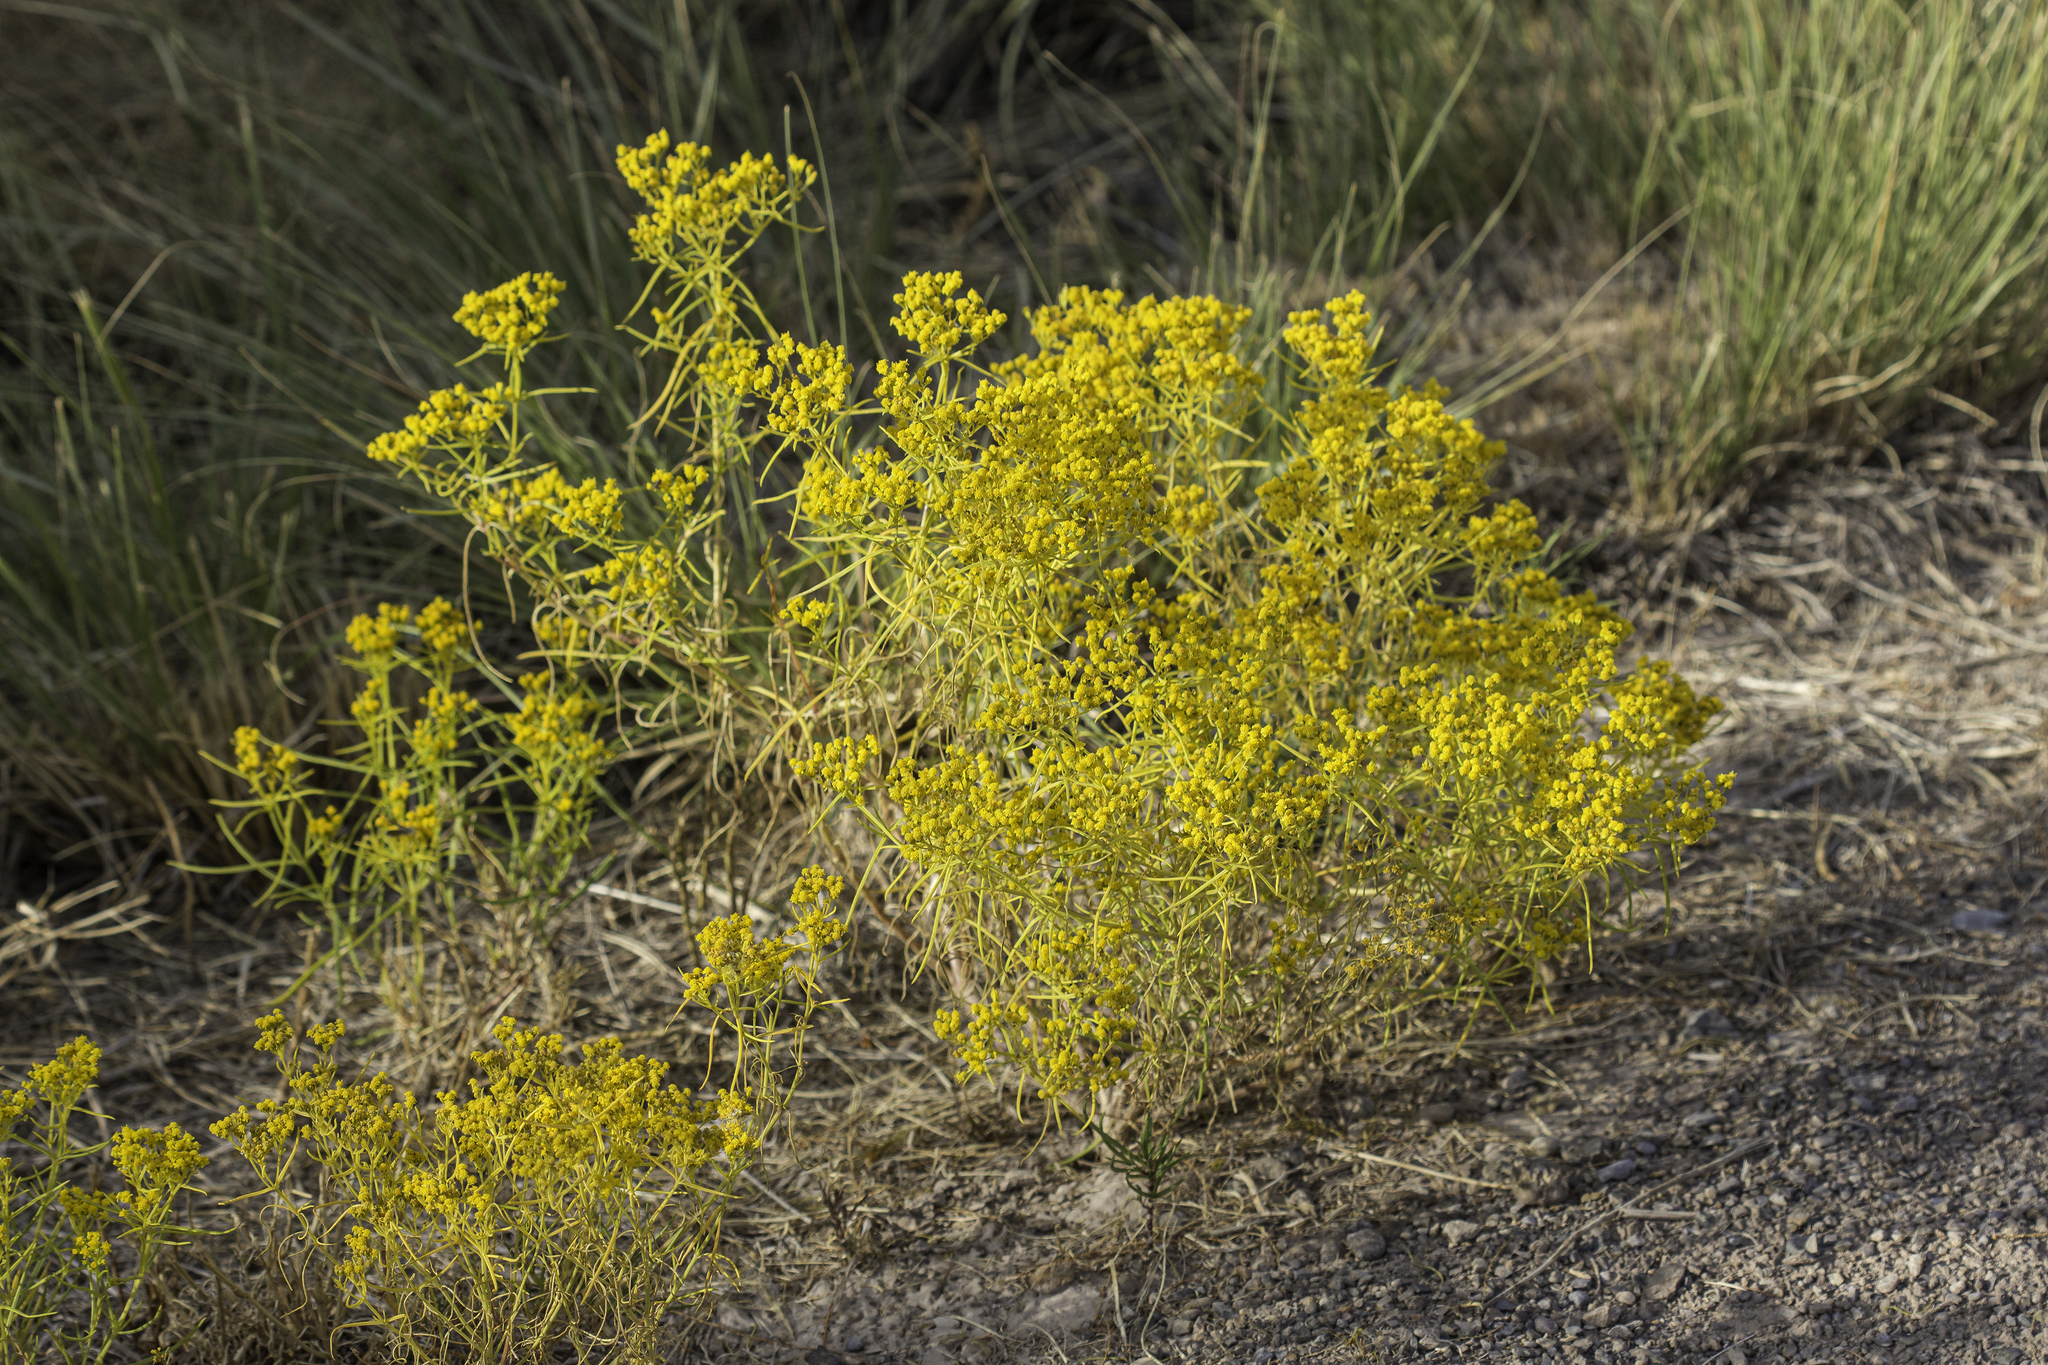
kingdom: Plantae
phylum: Tracheophyta
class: Magnoliopsida
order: Asterales
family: Asteraceae
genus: Sartwellia
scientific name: Sartwellia flaveriae
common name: Sartwellia
